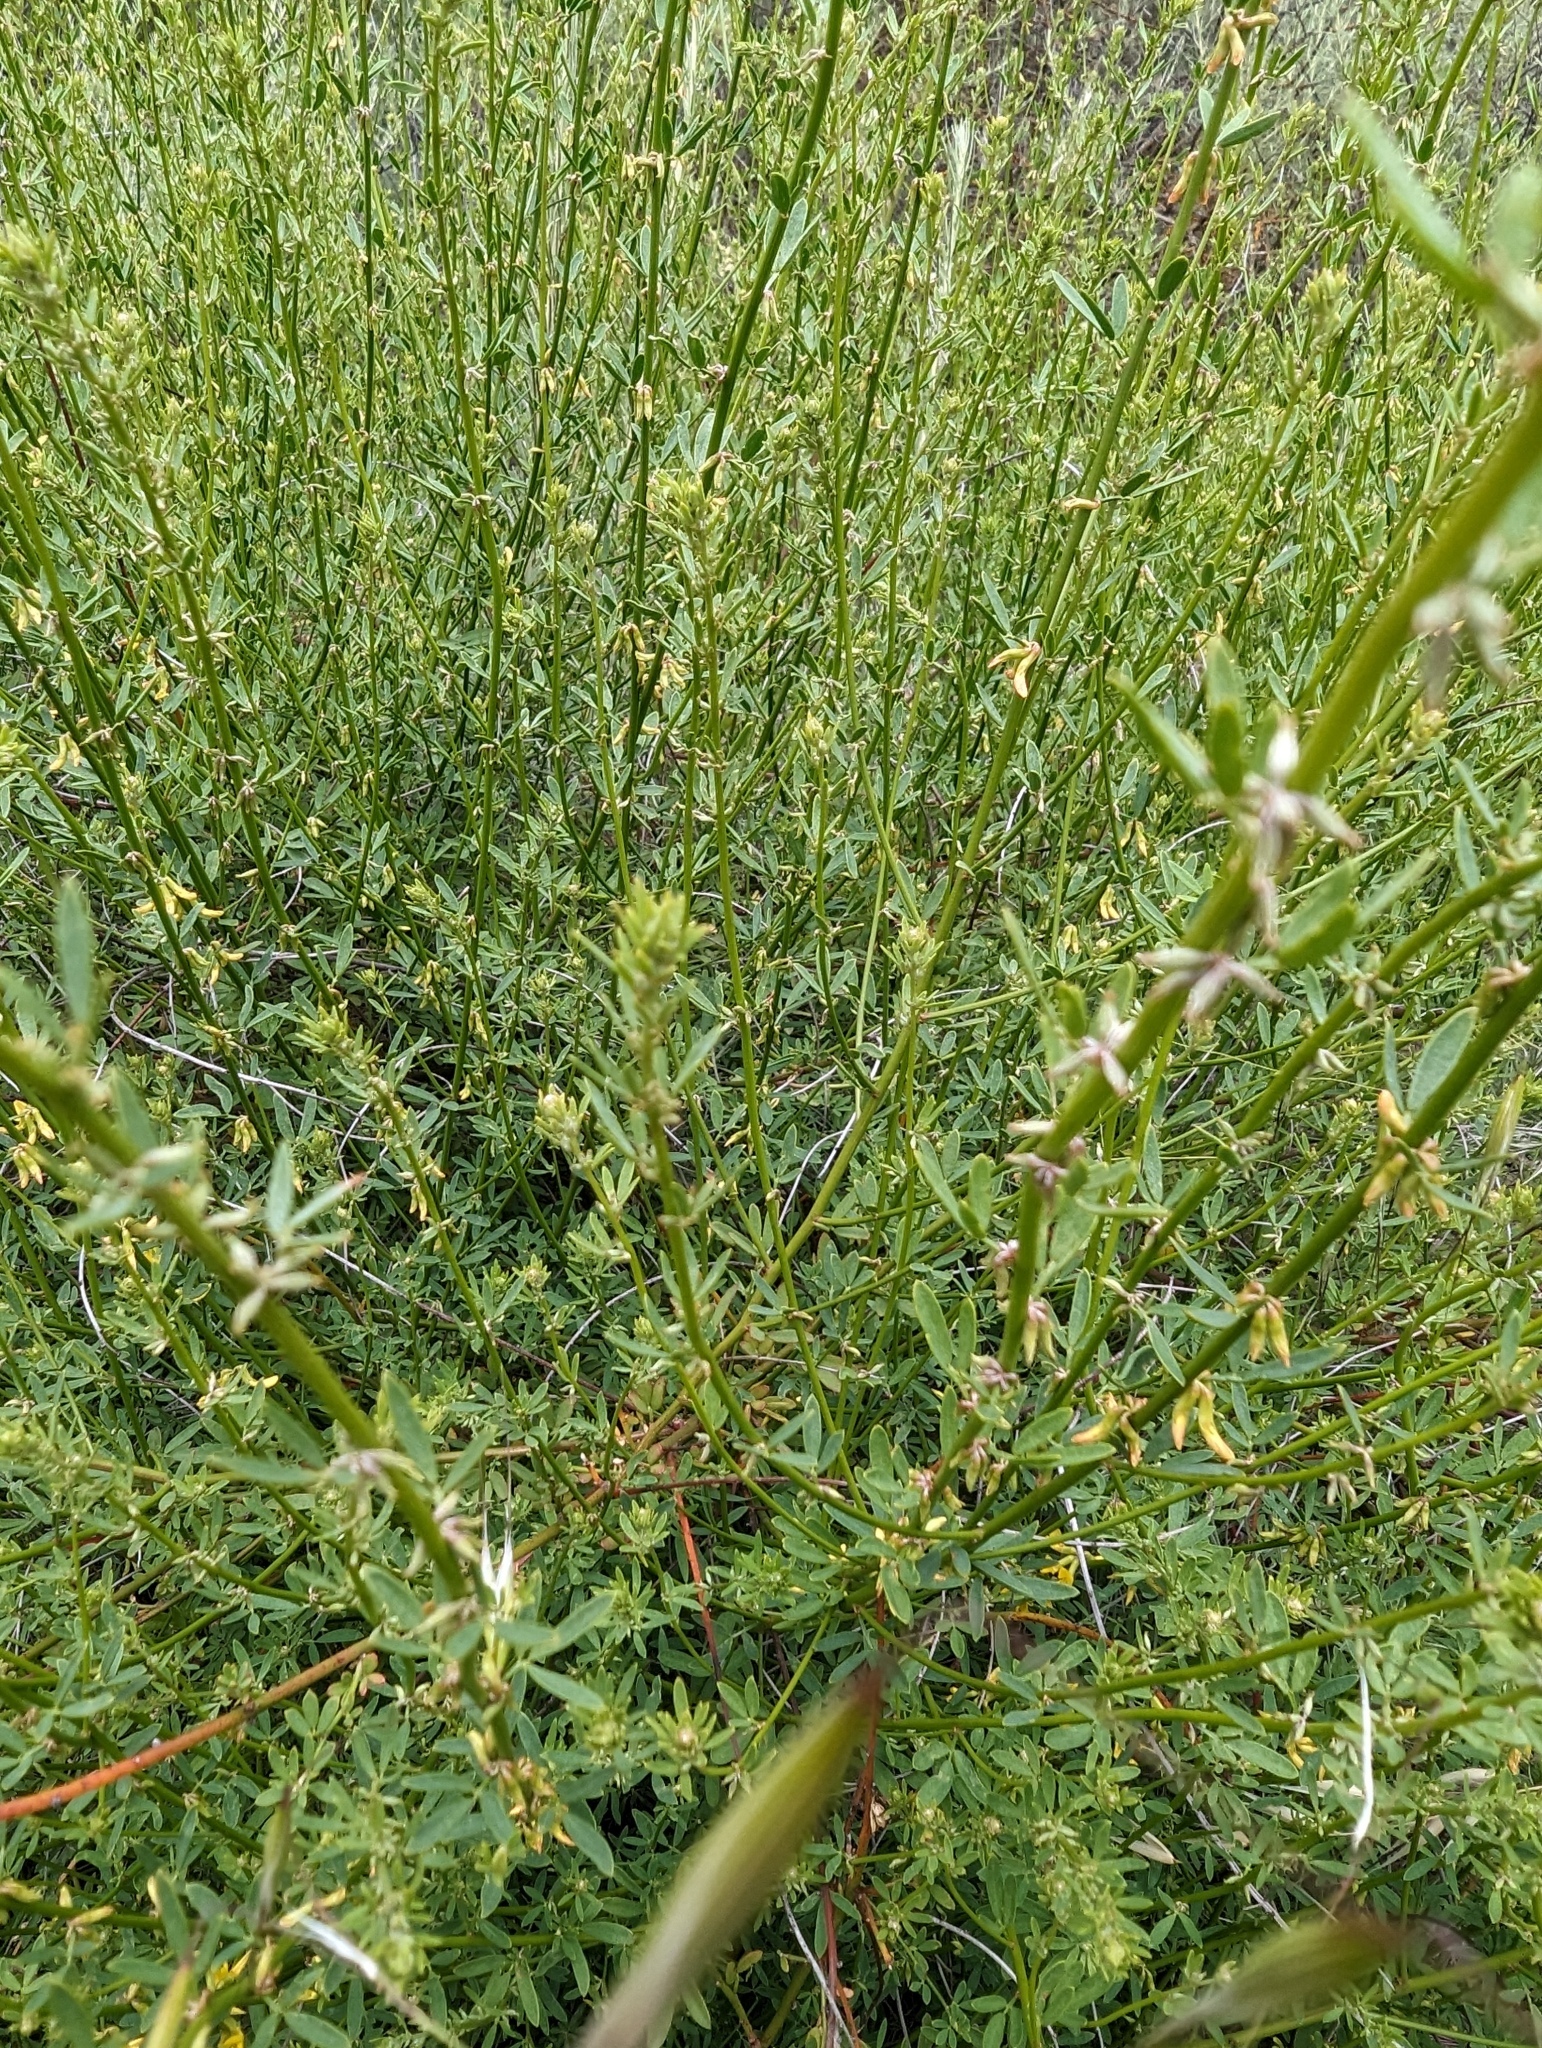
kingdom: Plantae
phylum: Tracheophyta
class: Magnoliopsida
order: Fabales
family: Fabaceae
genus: Acmispon
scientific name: Acmispon glaber
